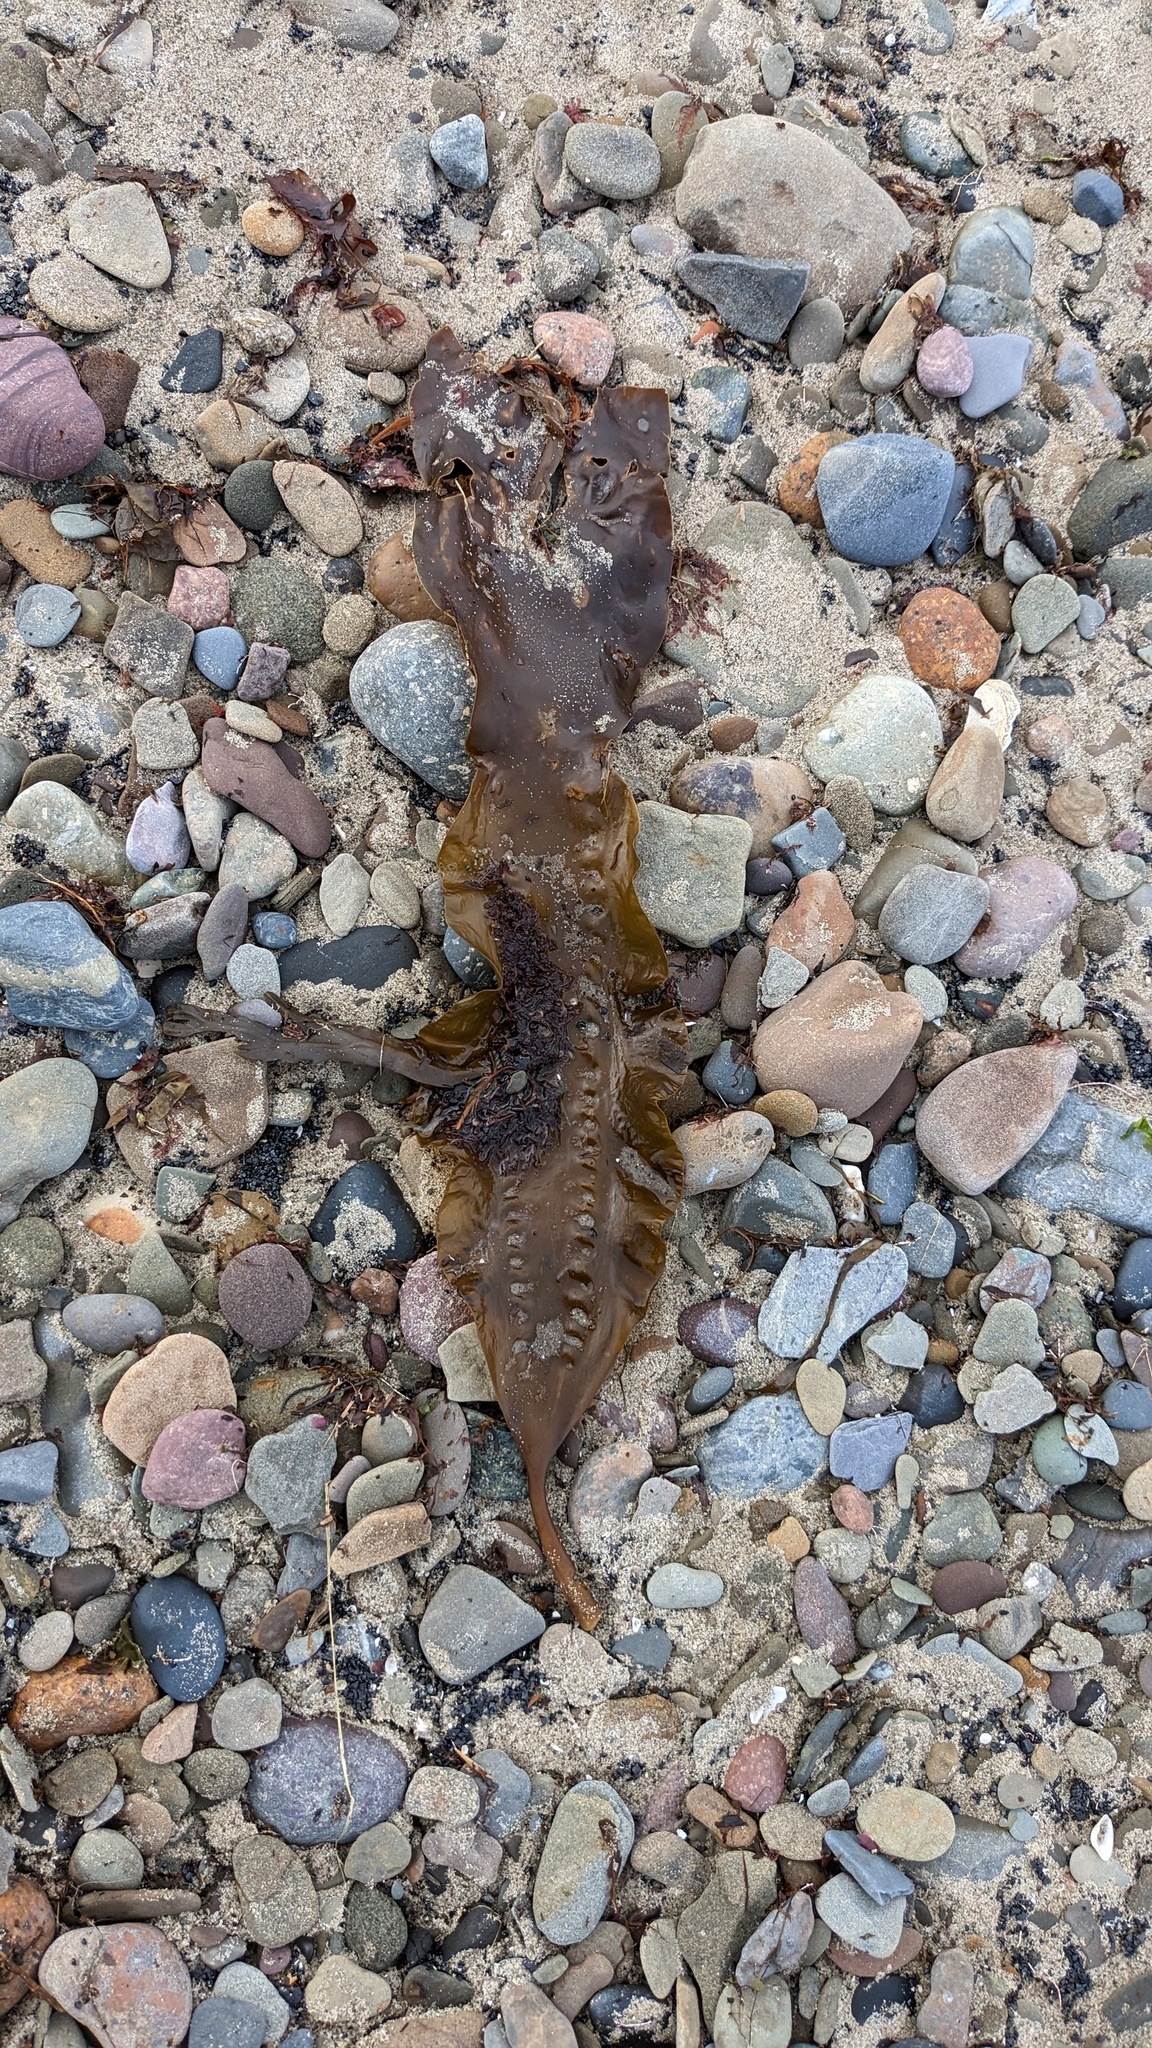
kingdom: Chromista
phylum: Ochrophyta
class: Phaeophyceae
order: Laminariales
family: Laminariaceae
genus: Saccharina
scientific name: Saccharina latissima
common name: Poor man's weather glass
